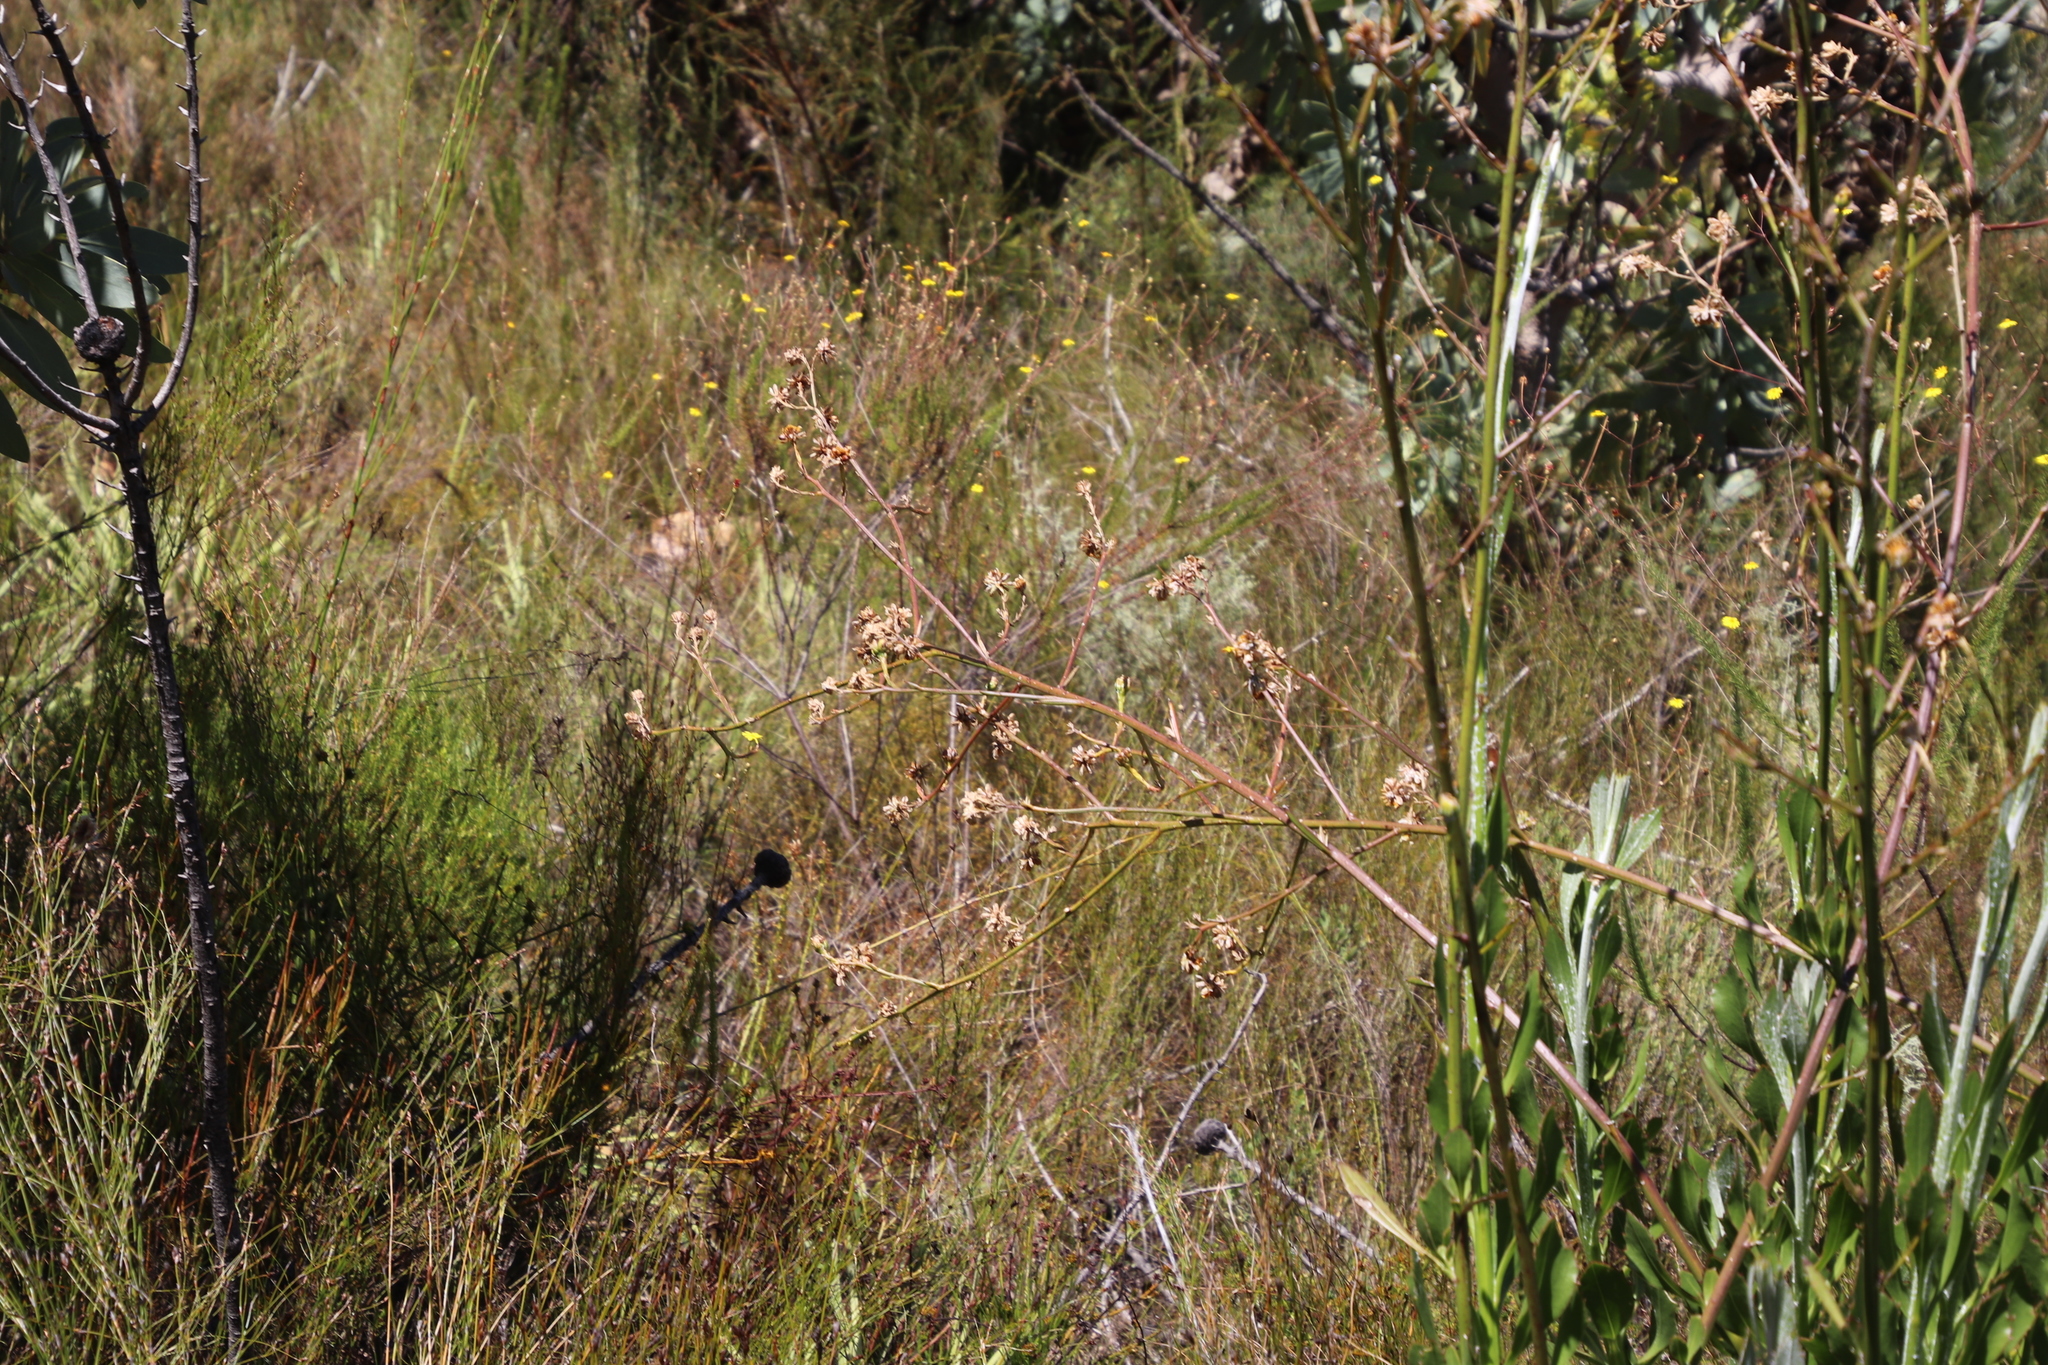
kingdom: Plantae
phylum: Tracheophyta
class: Magnoliopsida
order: Asterales
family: Asteraceae
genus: Osteospermum
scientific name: Osteospermum junceum
